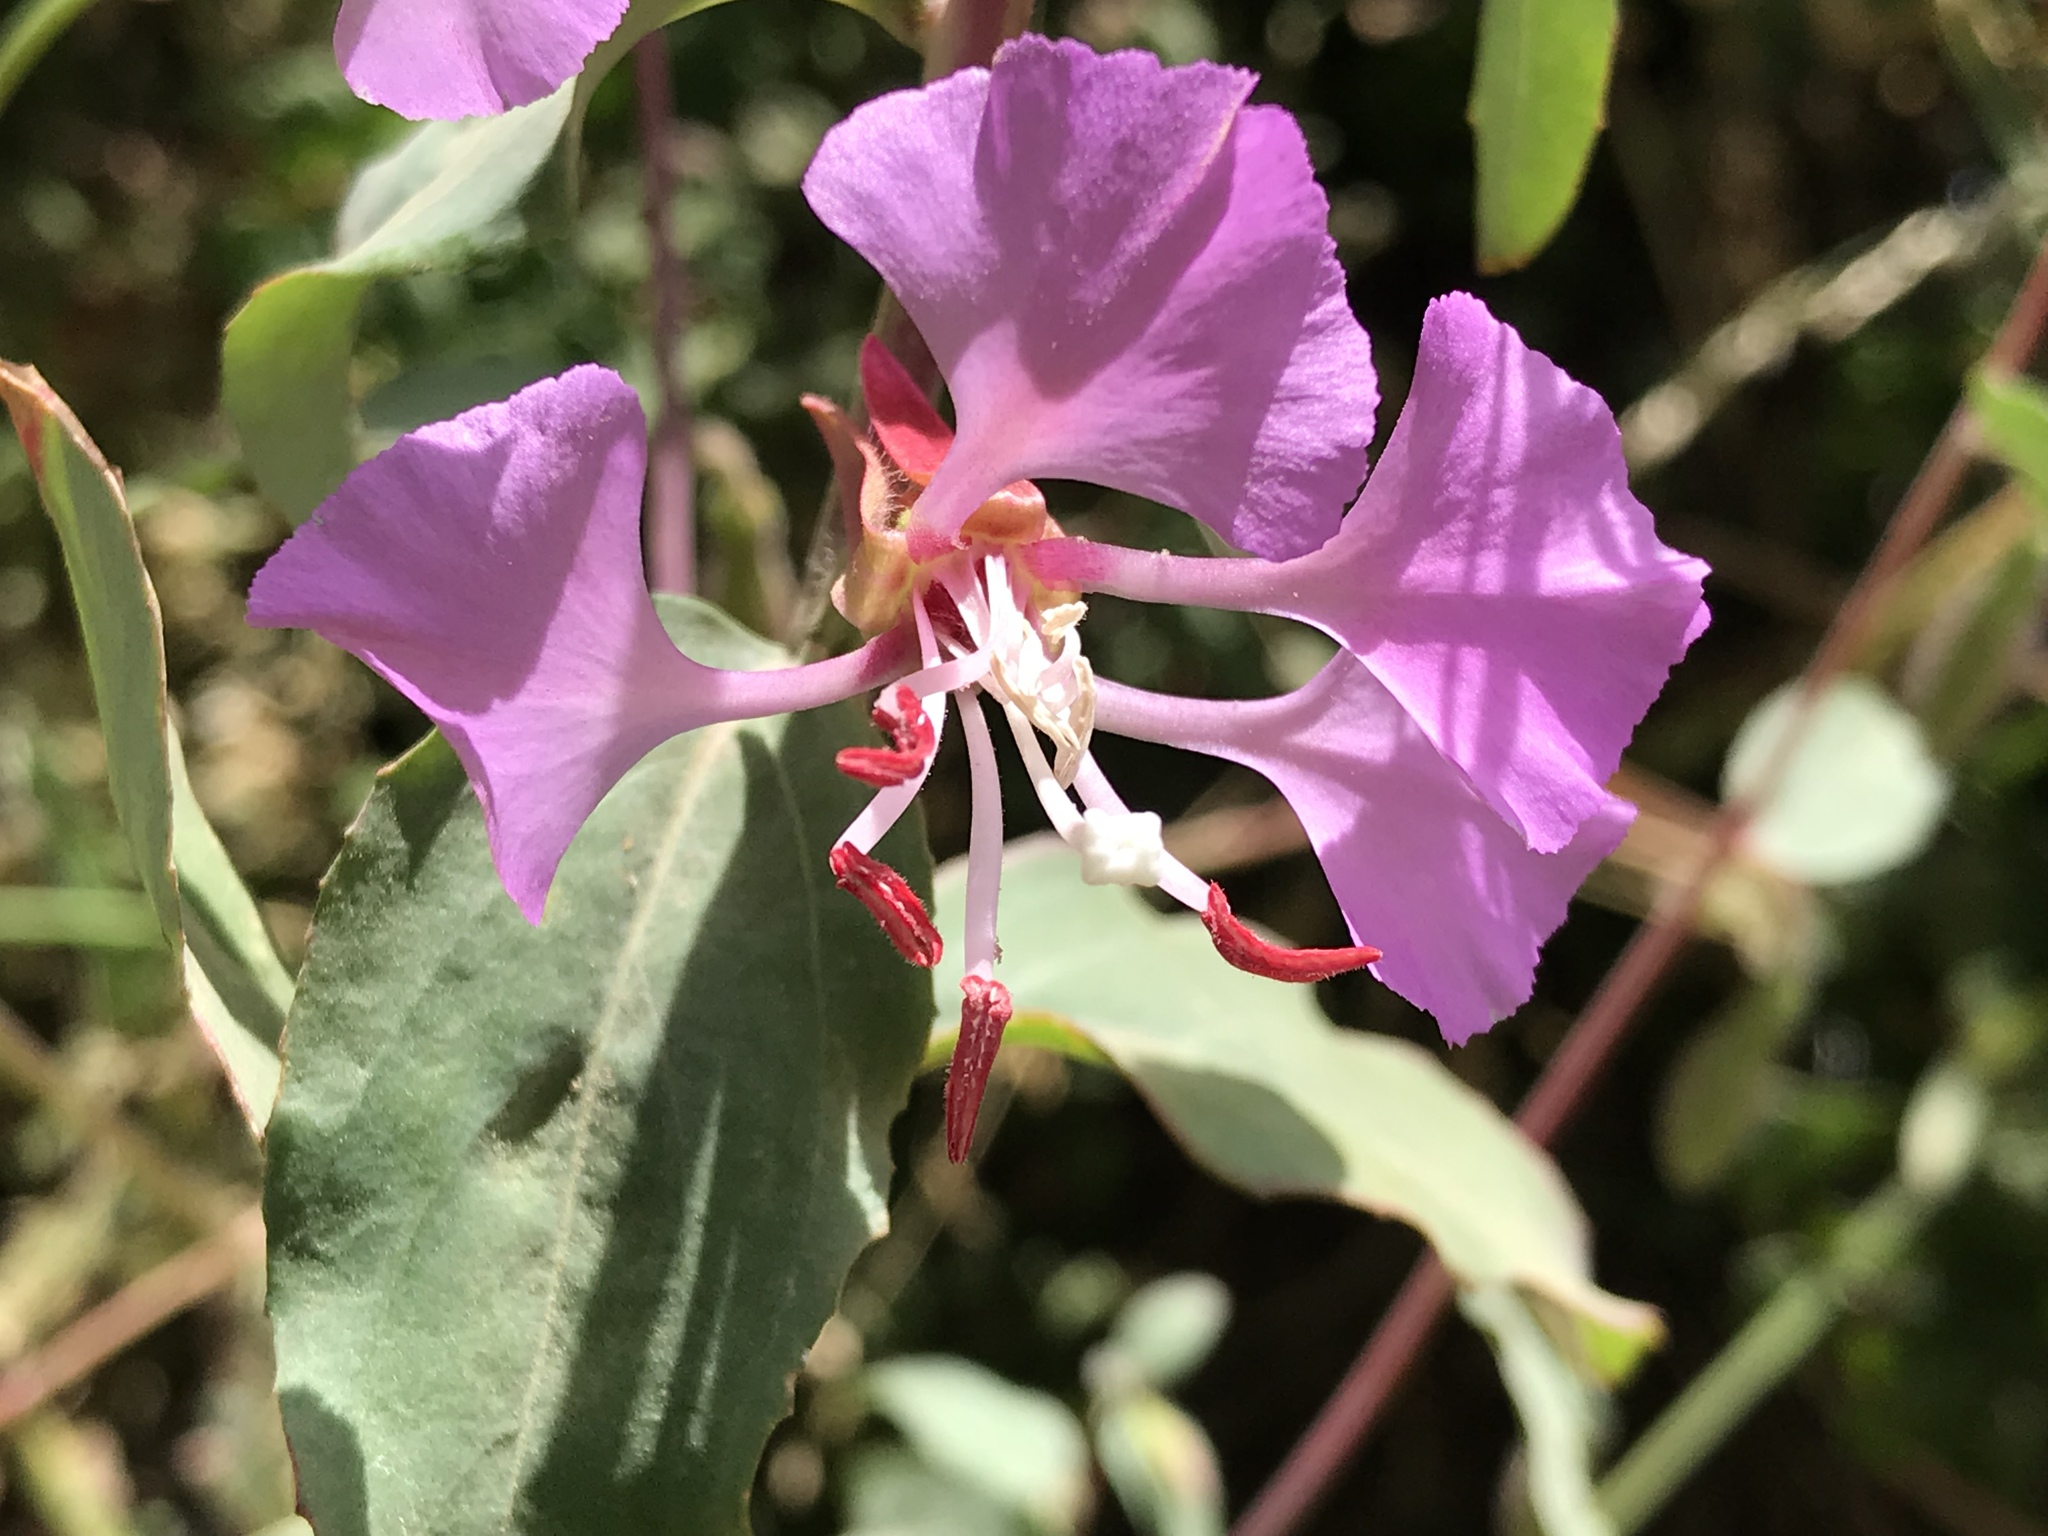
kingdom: Plantae
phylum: Tracheophyta
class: Magnoliopsida
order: Myrtales
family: Onagraceae
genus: Clarkia
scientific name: Clarkia unguiculata
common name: Clarkia
